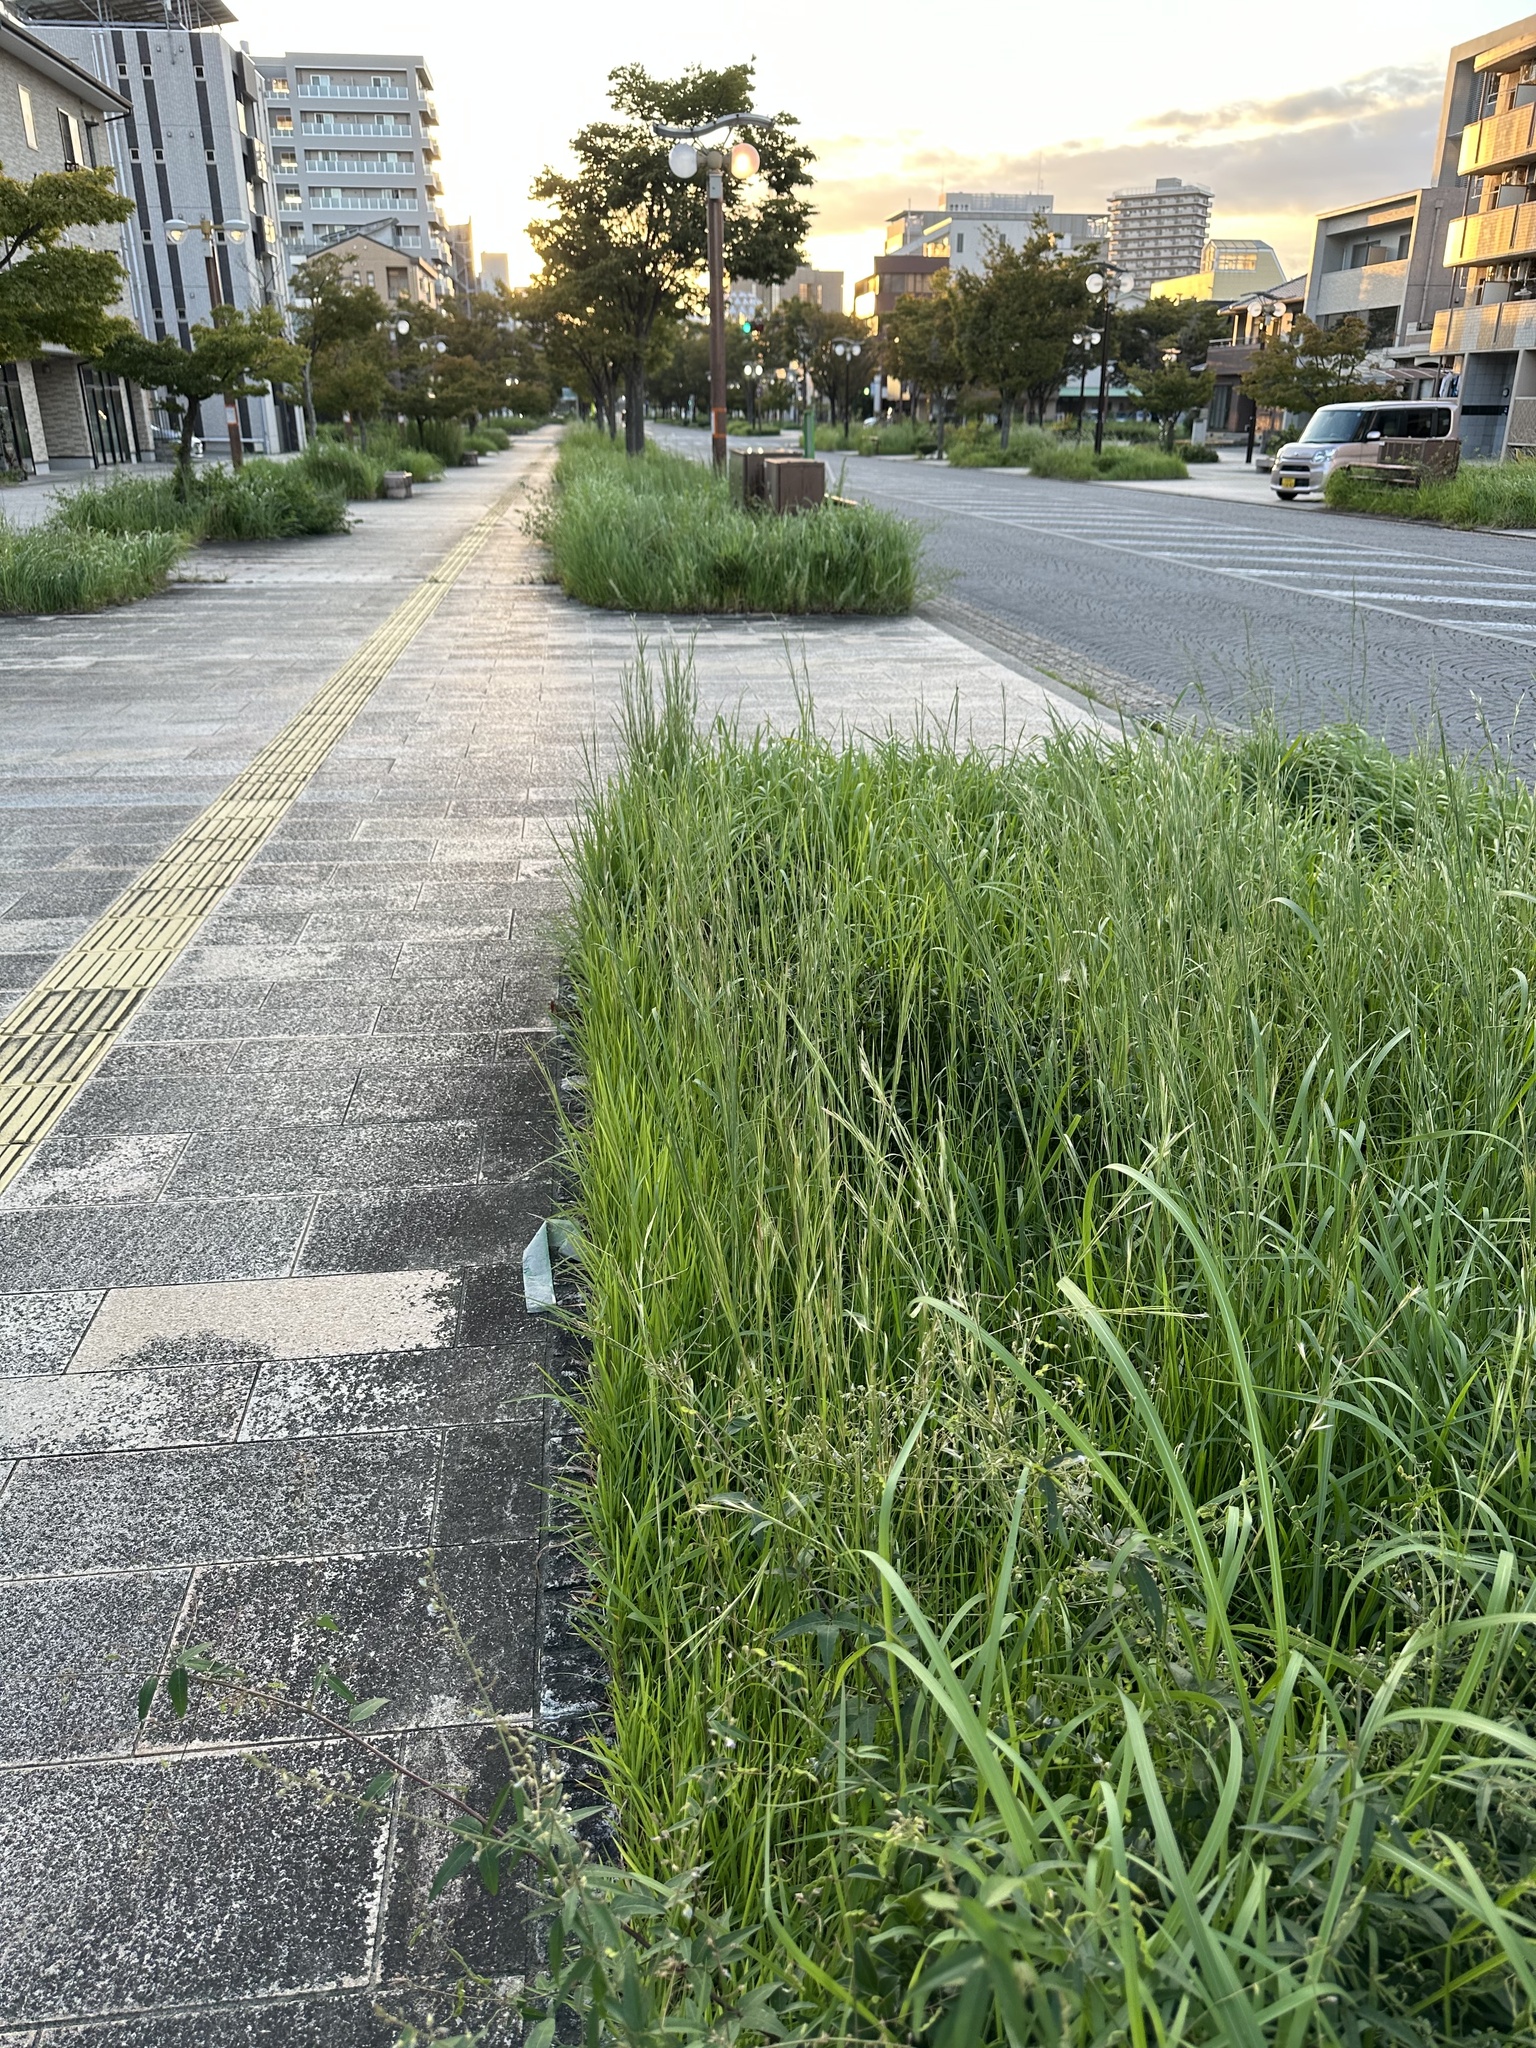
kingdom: Animalia
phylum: Arthropoda
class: Insecta
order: Orthoptera
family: Gryllidae
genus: Teleogryllus
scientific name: Teleogryllus emma
